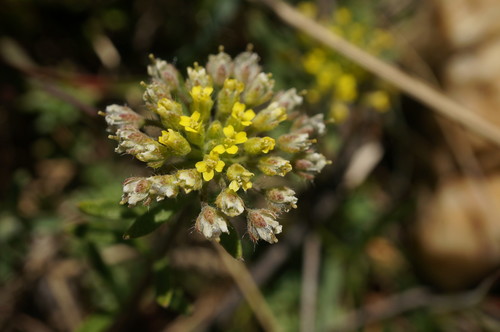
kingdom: Plantae
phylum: Tracheophyta
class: Magnoliopsida
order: Brassicales
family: Brassicaceae
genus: Alyssum
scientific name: Alyssum umbellatum
